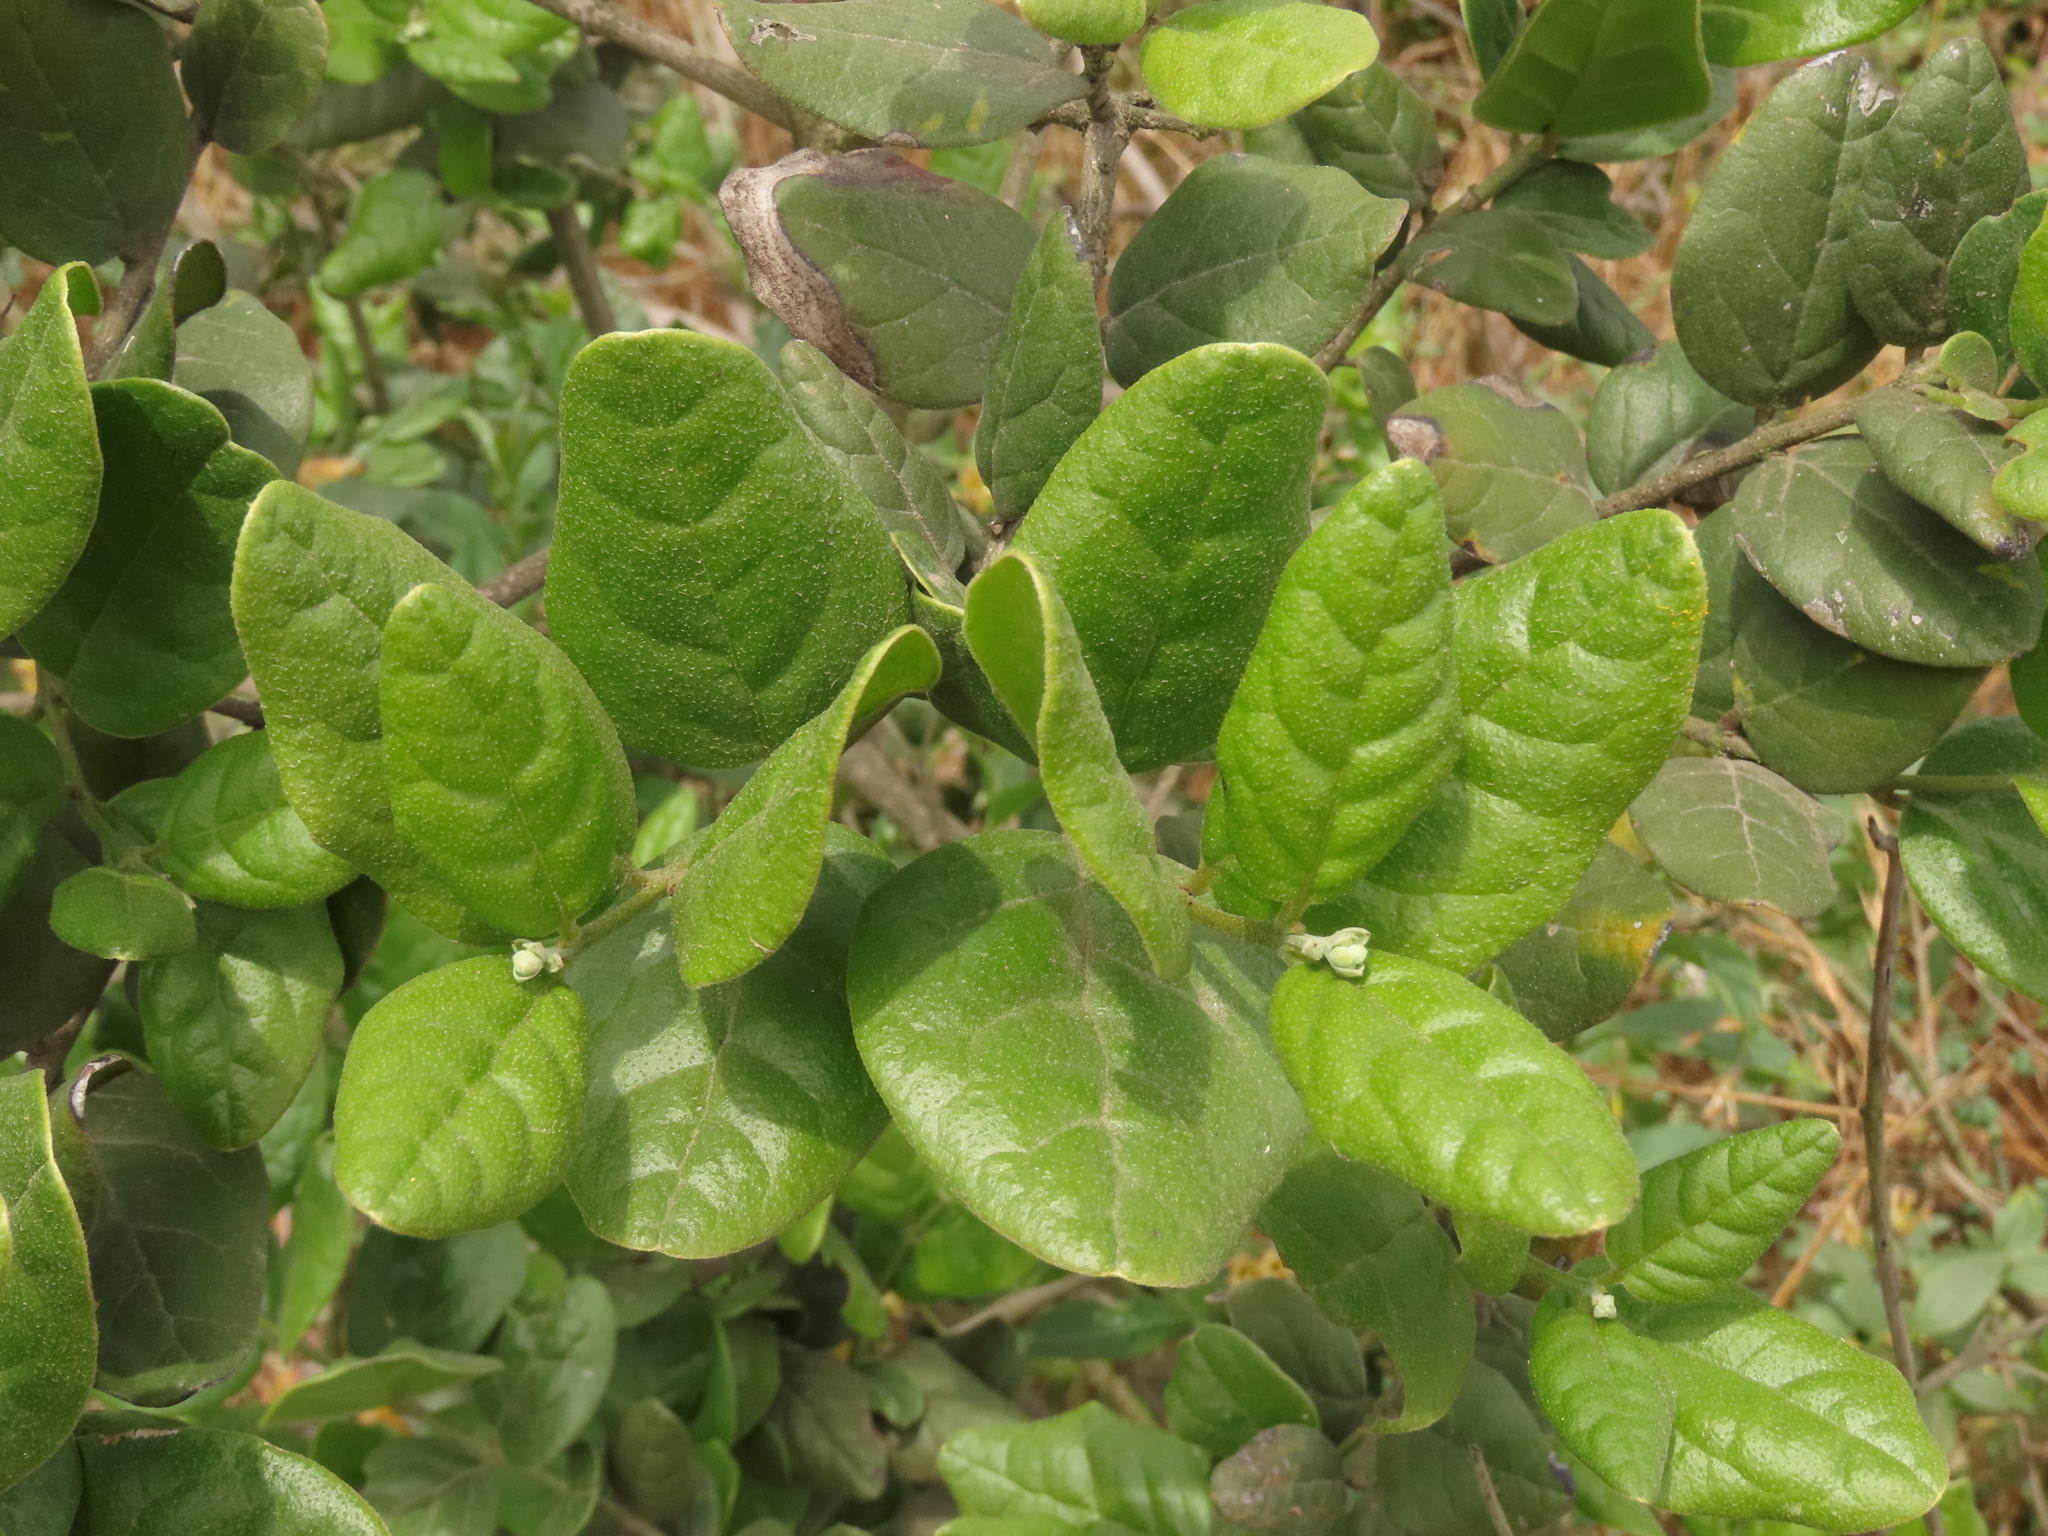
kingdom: Plantae
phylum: Tracheophyta
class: Magnoliopsida
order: Laurales
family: Monimiaceae
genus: Peumus
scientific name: Peumus boldus
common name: Boldo
